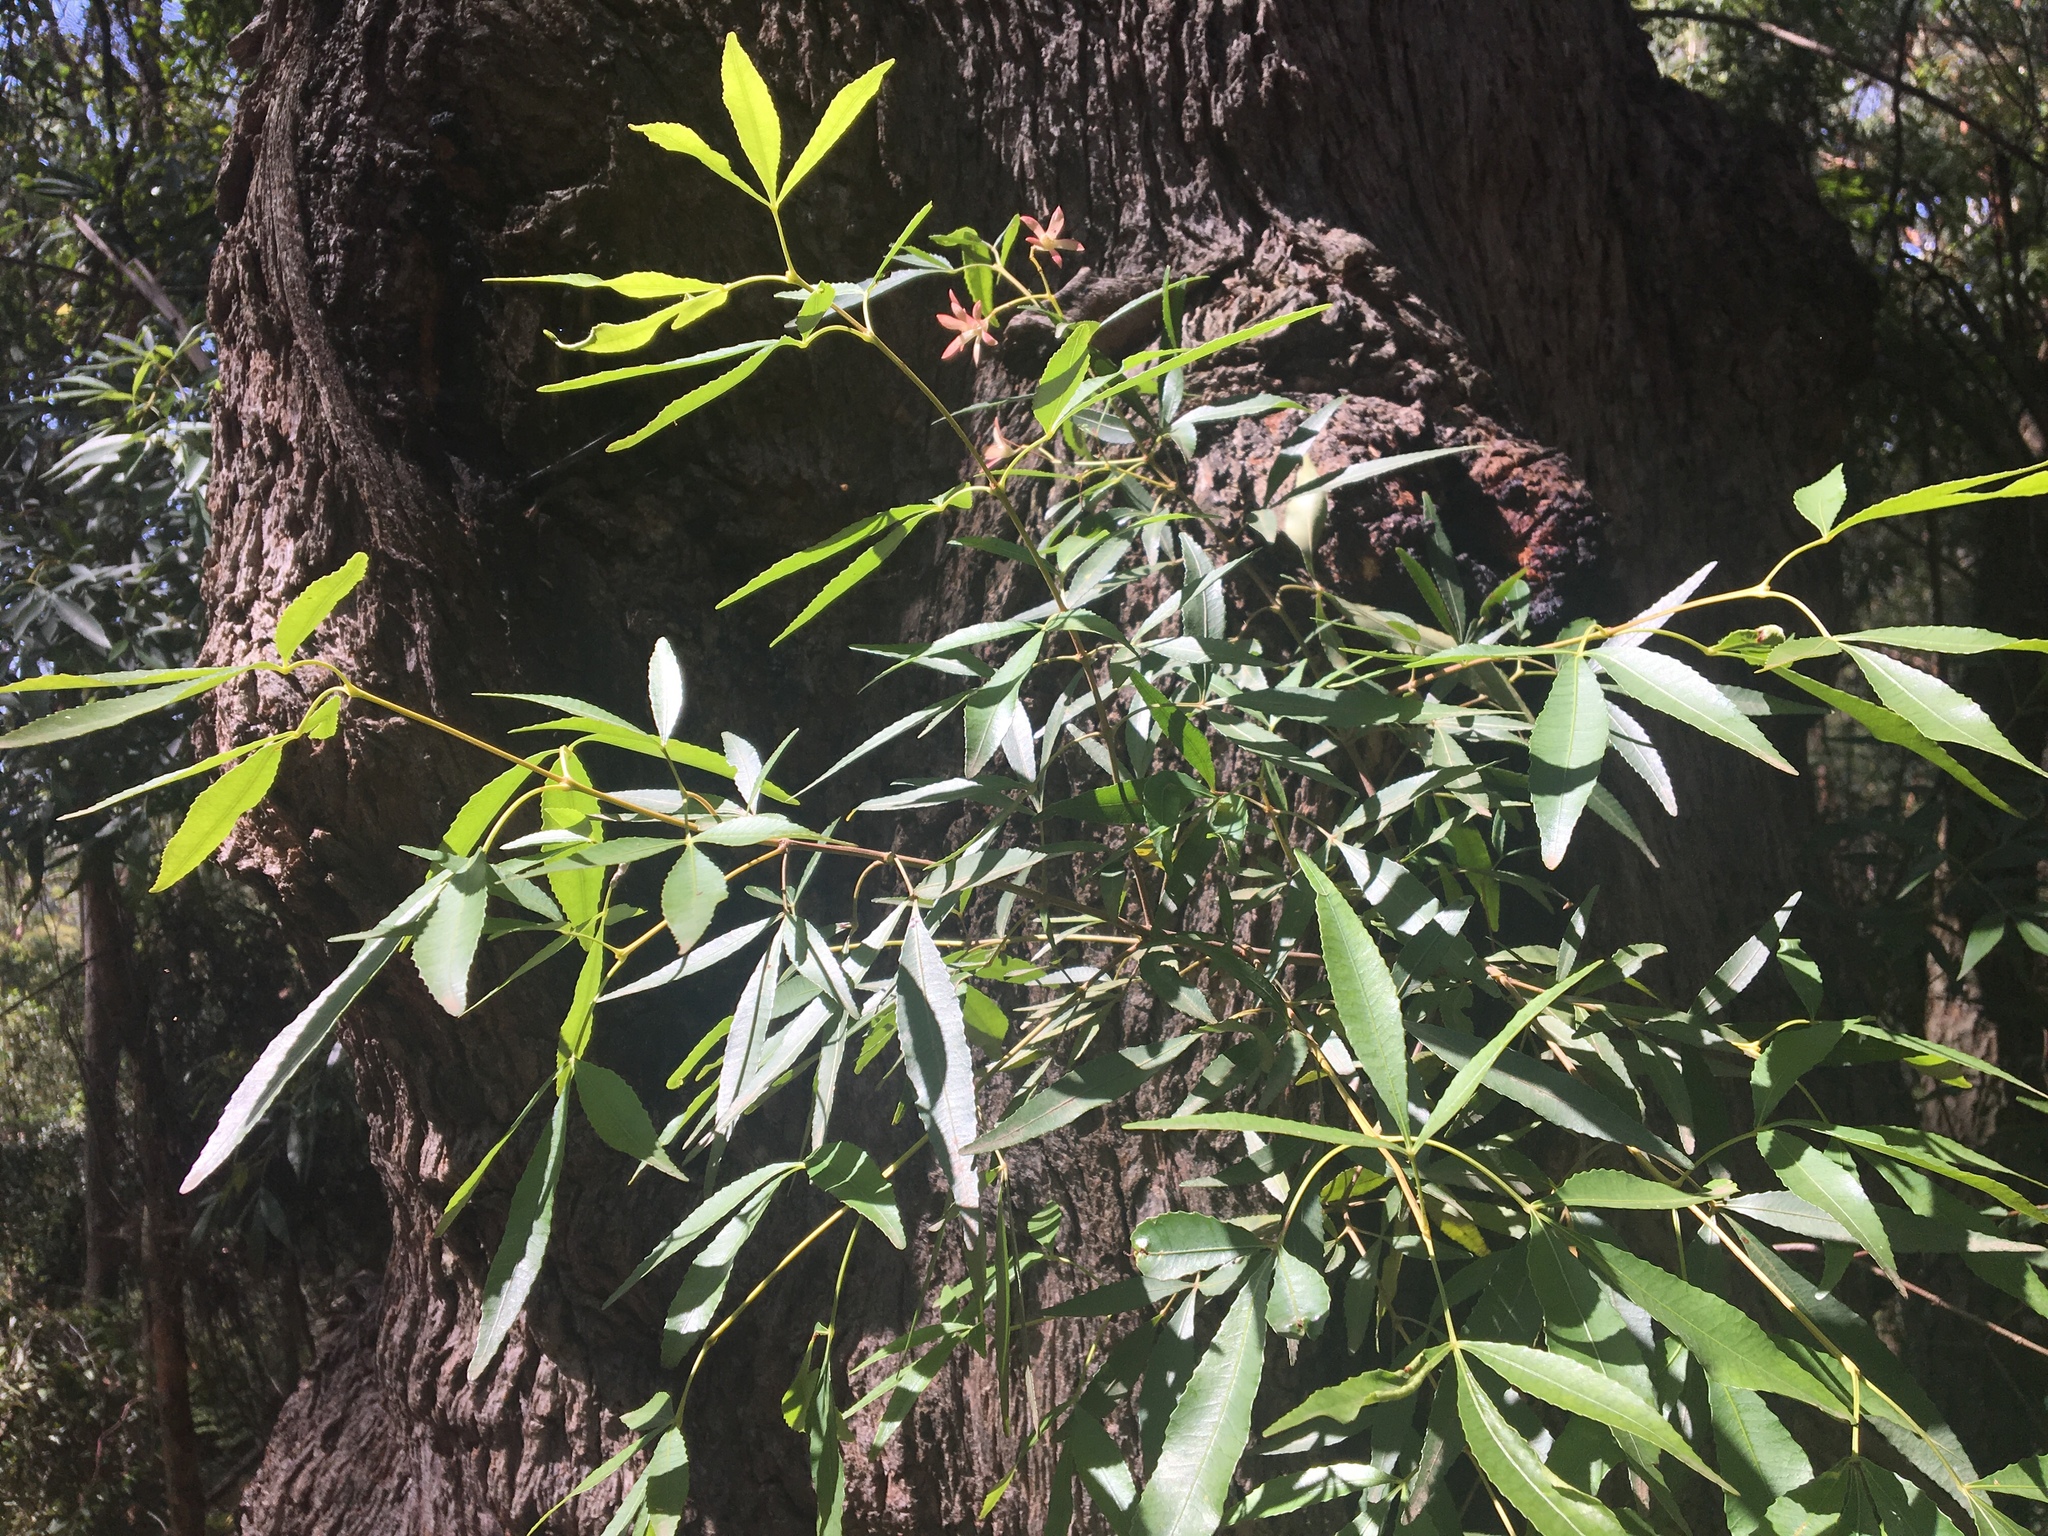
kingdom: Plantae
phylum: Tracheophyta
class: Magnoliopsida
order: Oxalidales
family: Cunoniaceae
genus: Ceratopetalum
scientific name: Ceratopetalum gummiferum
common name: Christmasbush
